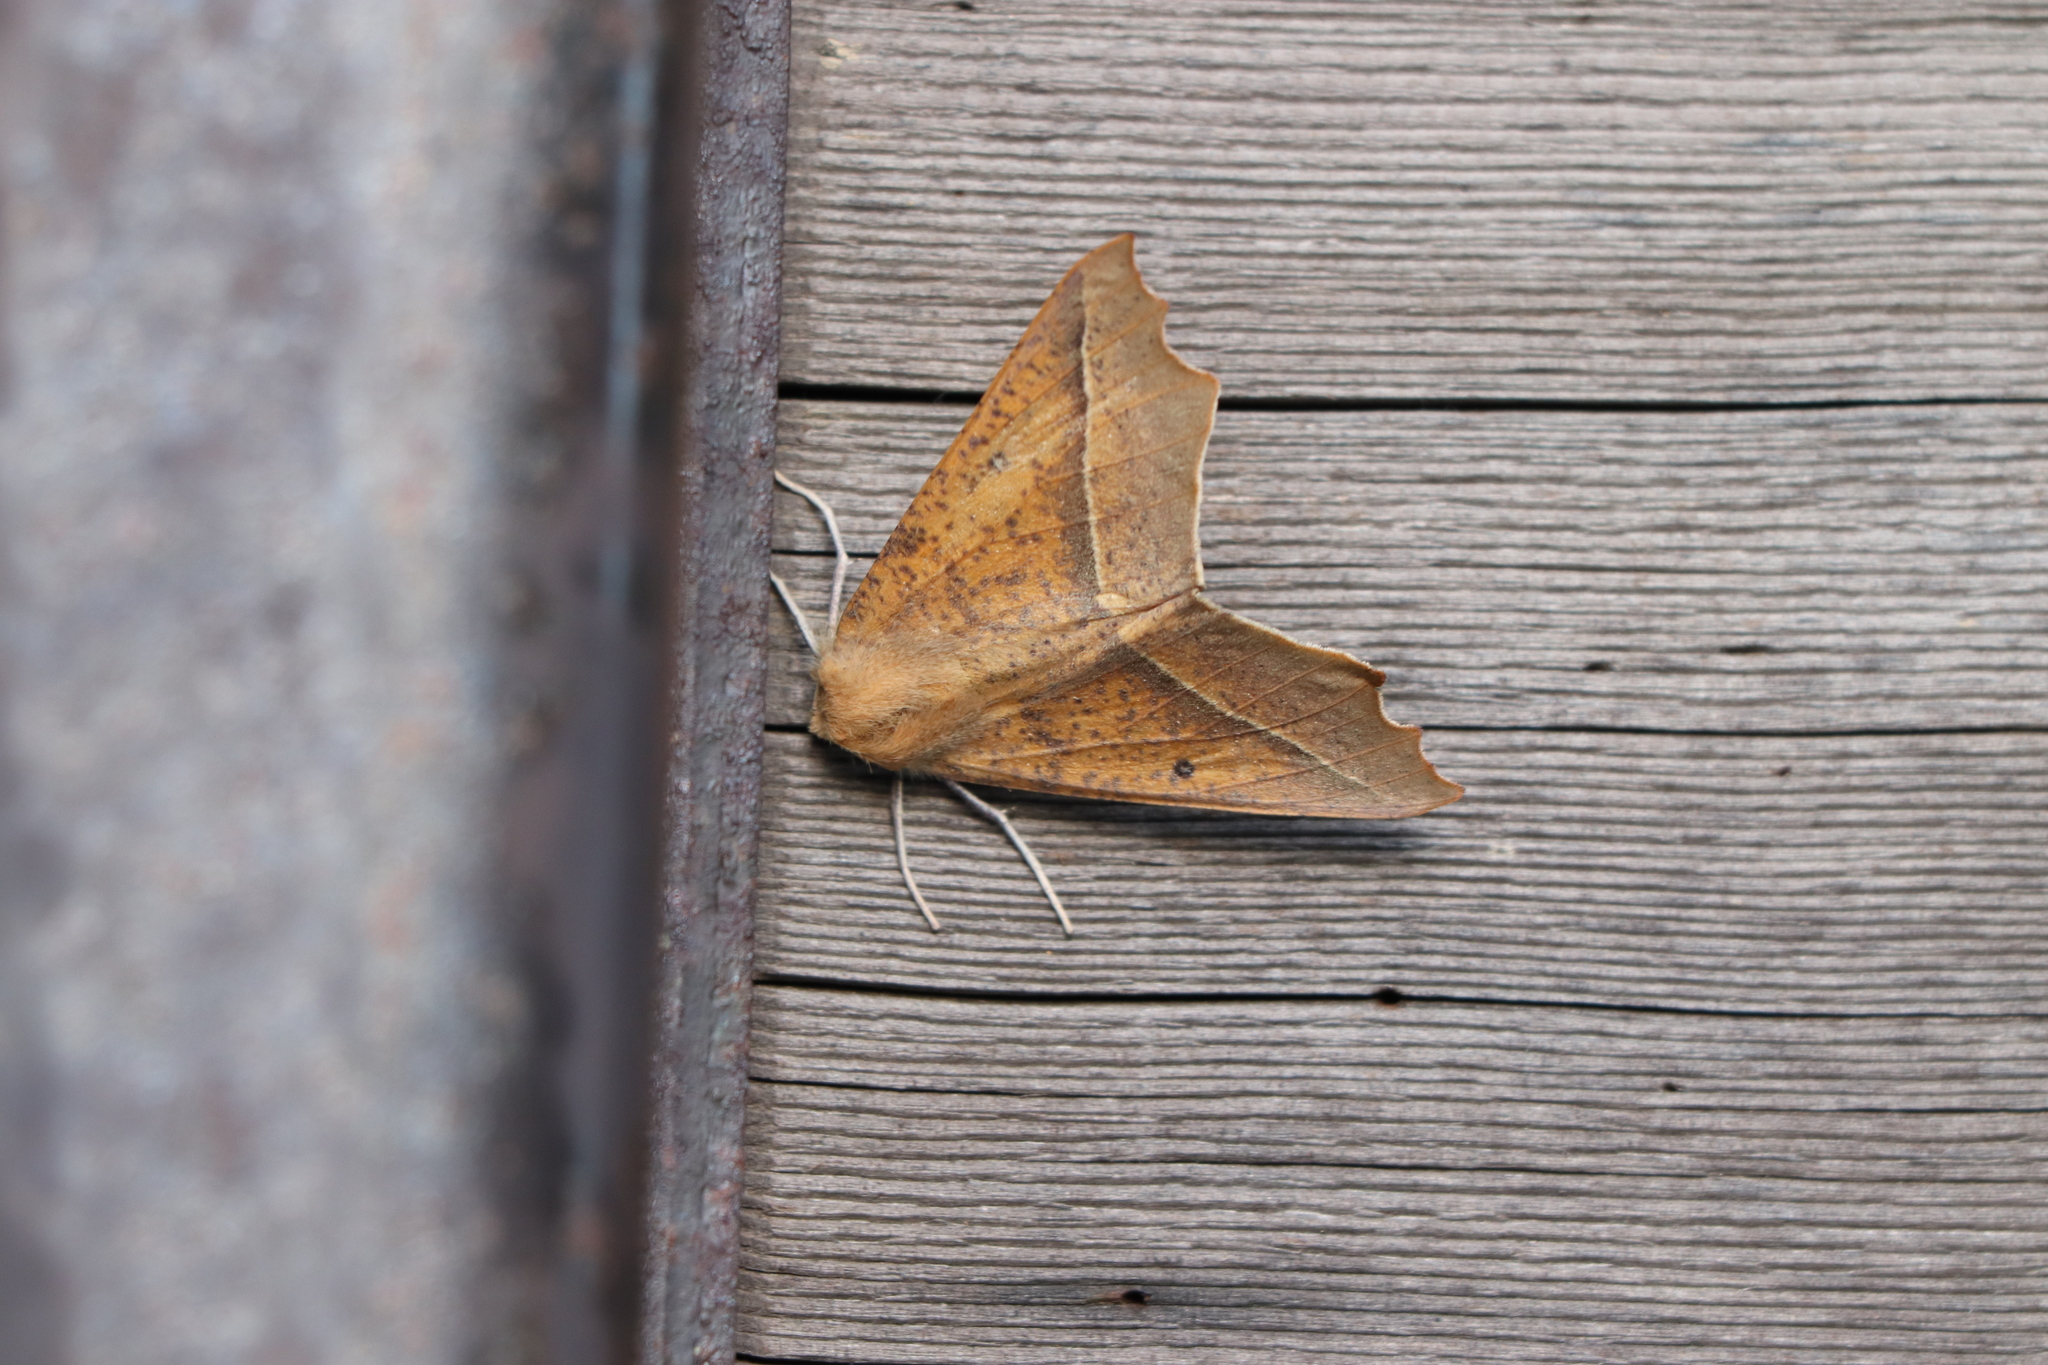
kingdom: Animalia
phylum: Arthropoda
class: Insecta
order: Lepidoptera
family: Geometridae
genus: Odontopera
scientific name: Odontopera arida
